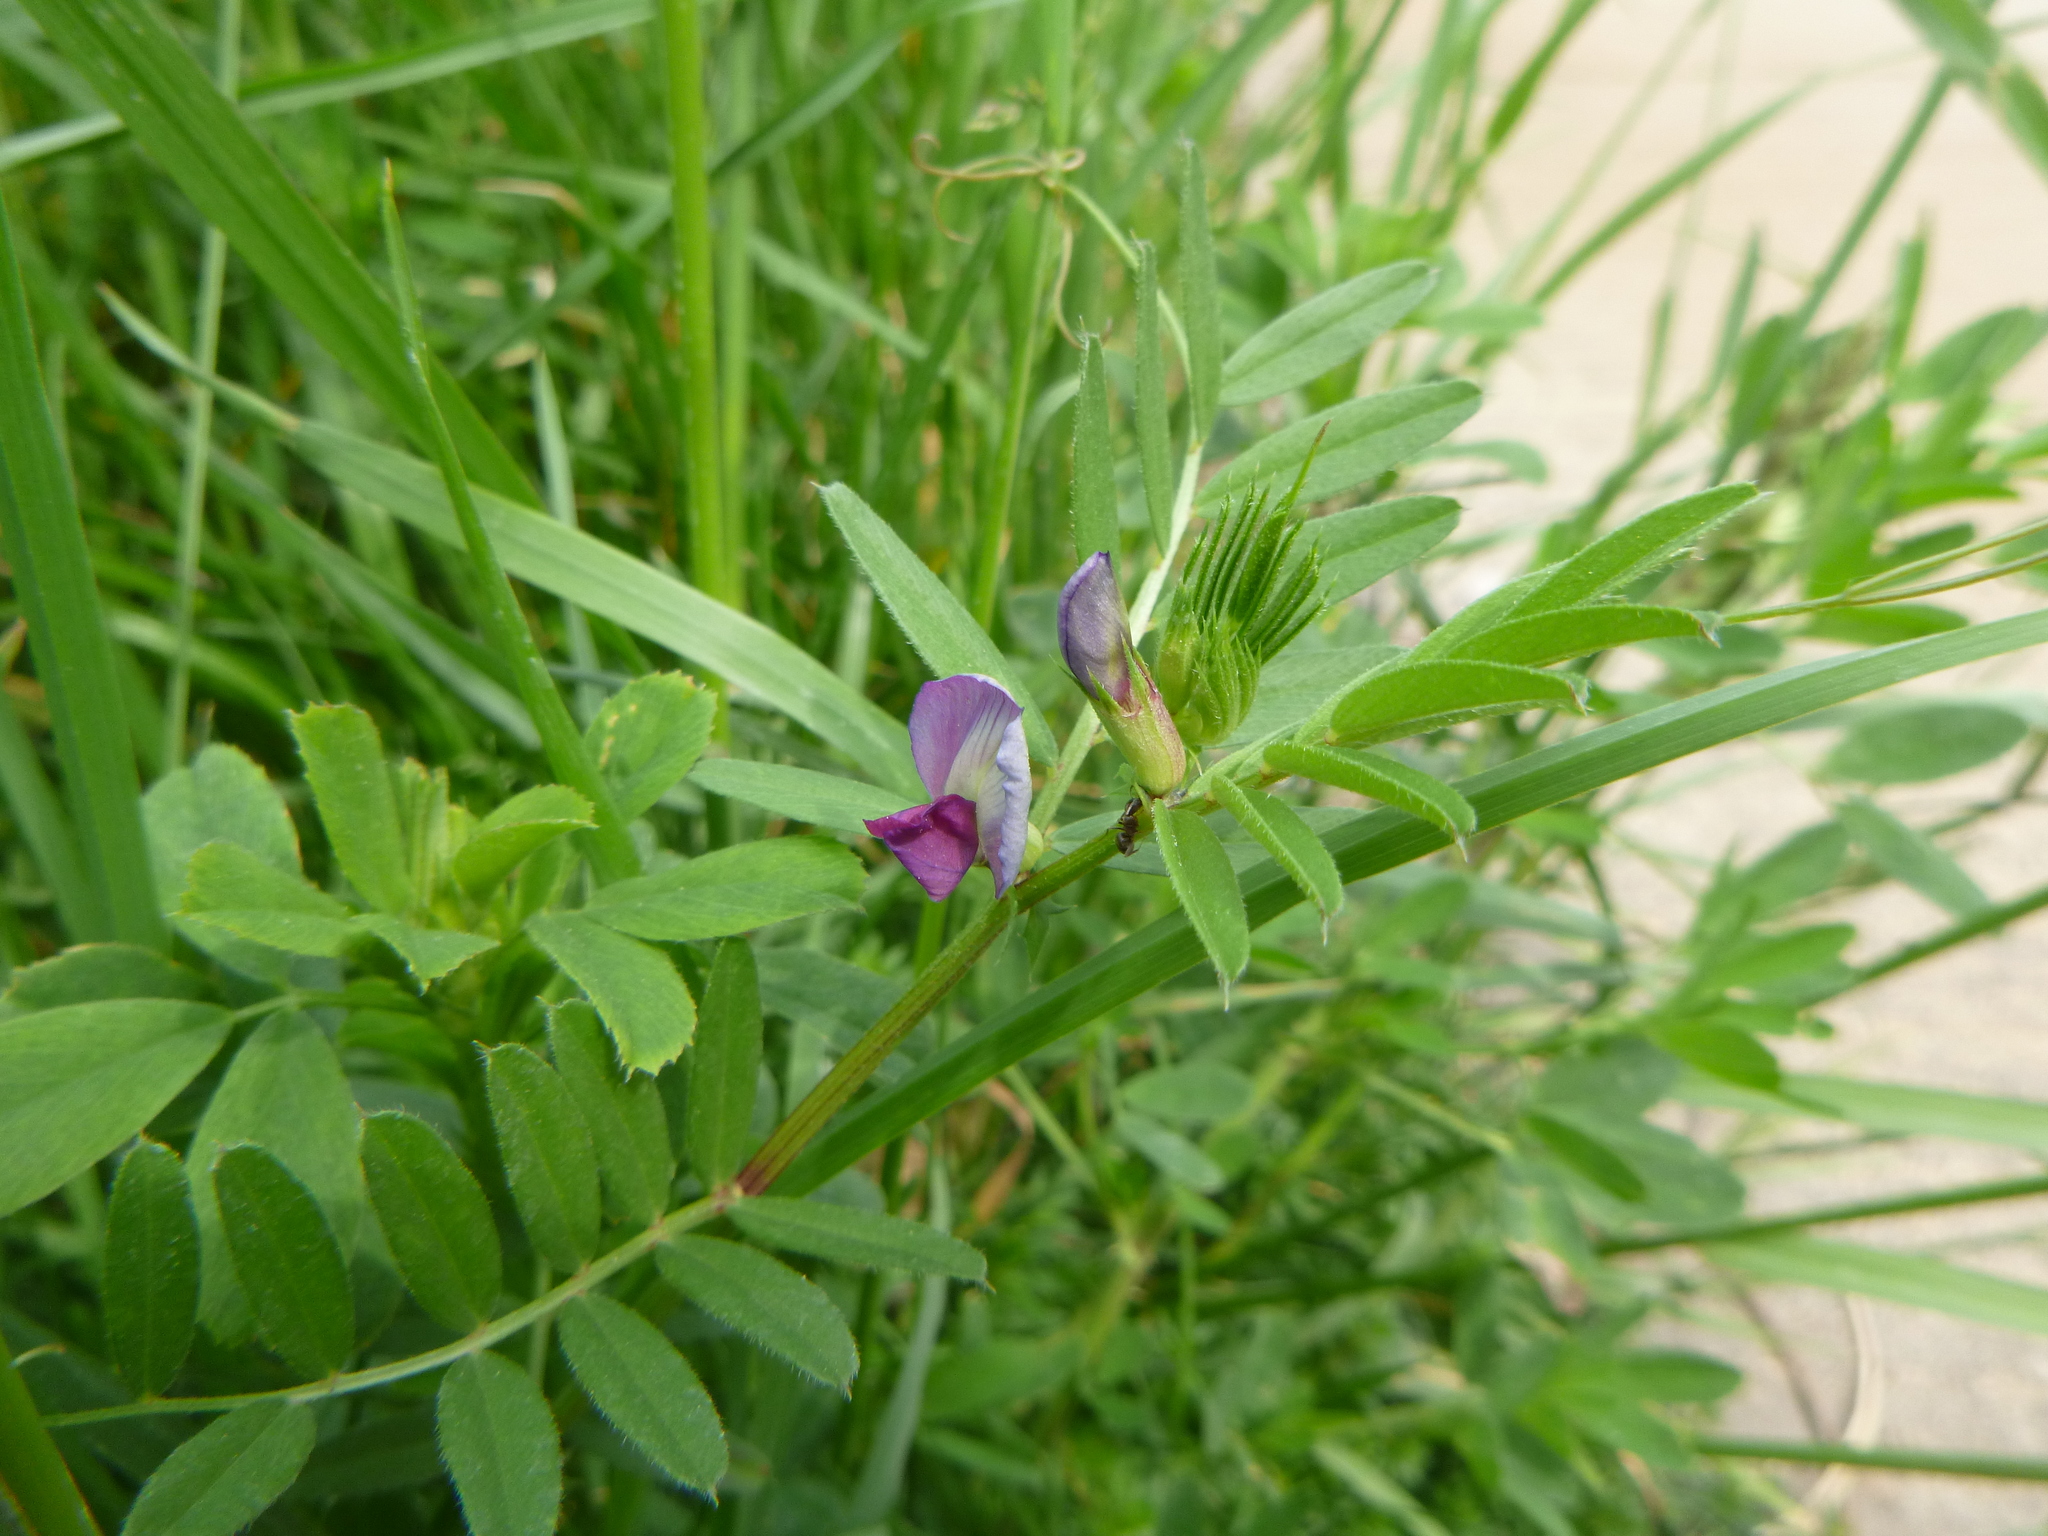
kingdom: Plantae
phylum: Tracheophyta
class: Magnoliopsida
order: Fabales
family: Fabaceae
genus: Vicia
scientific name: Vicia sativa
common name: Garden vetch
